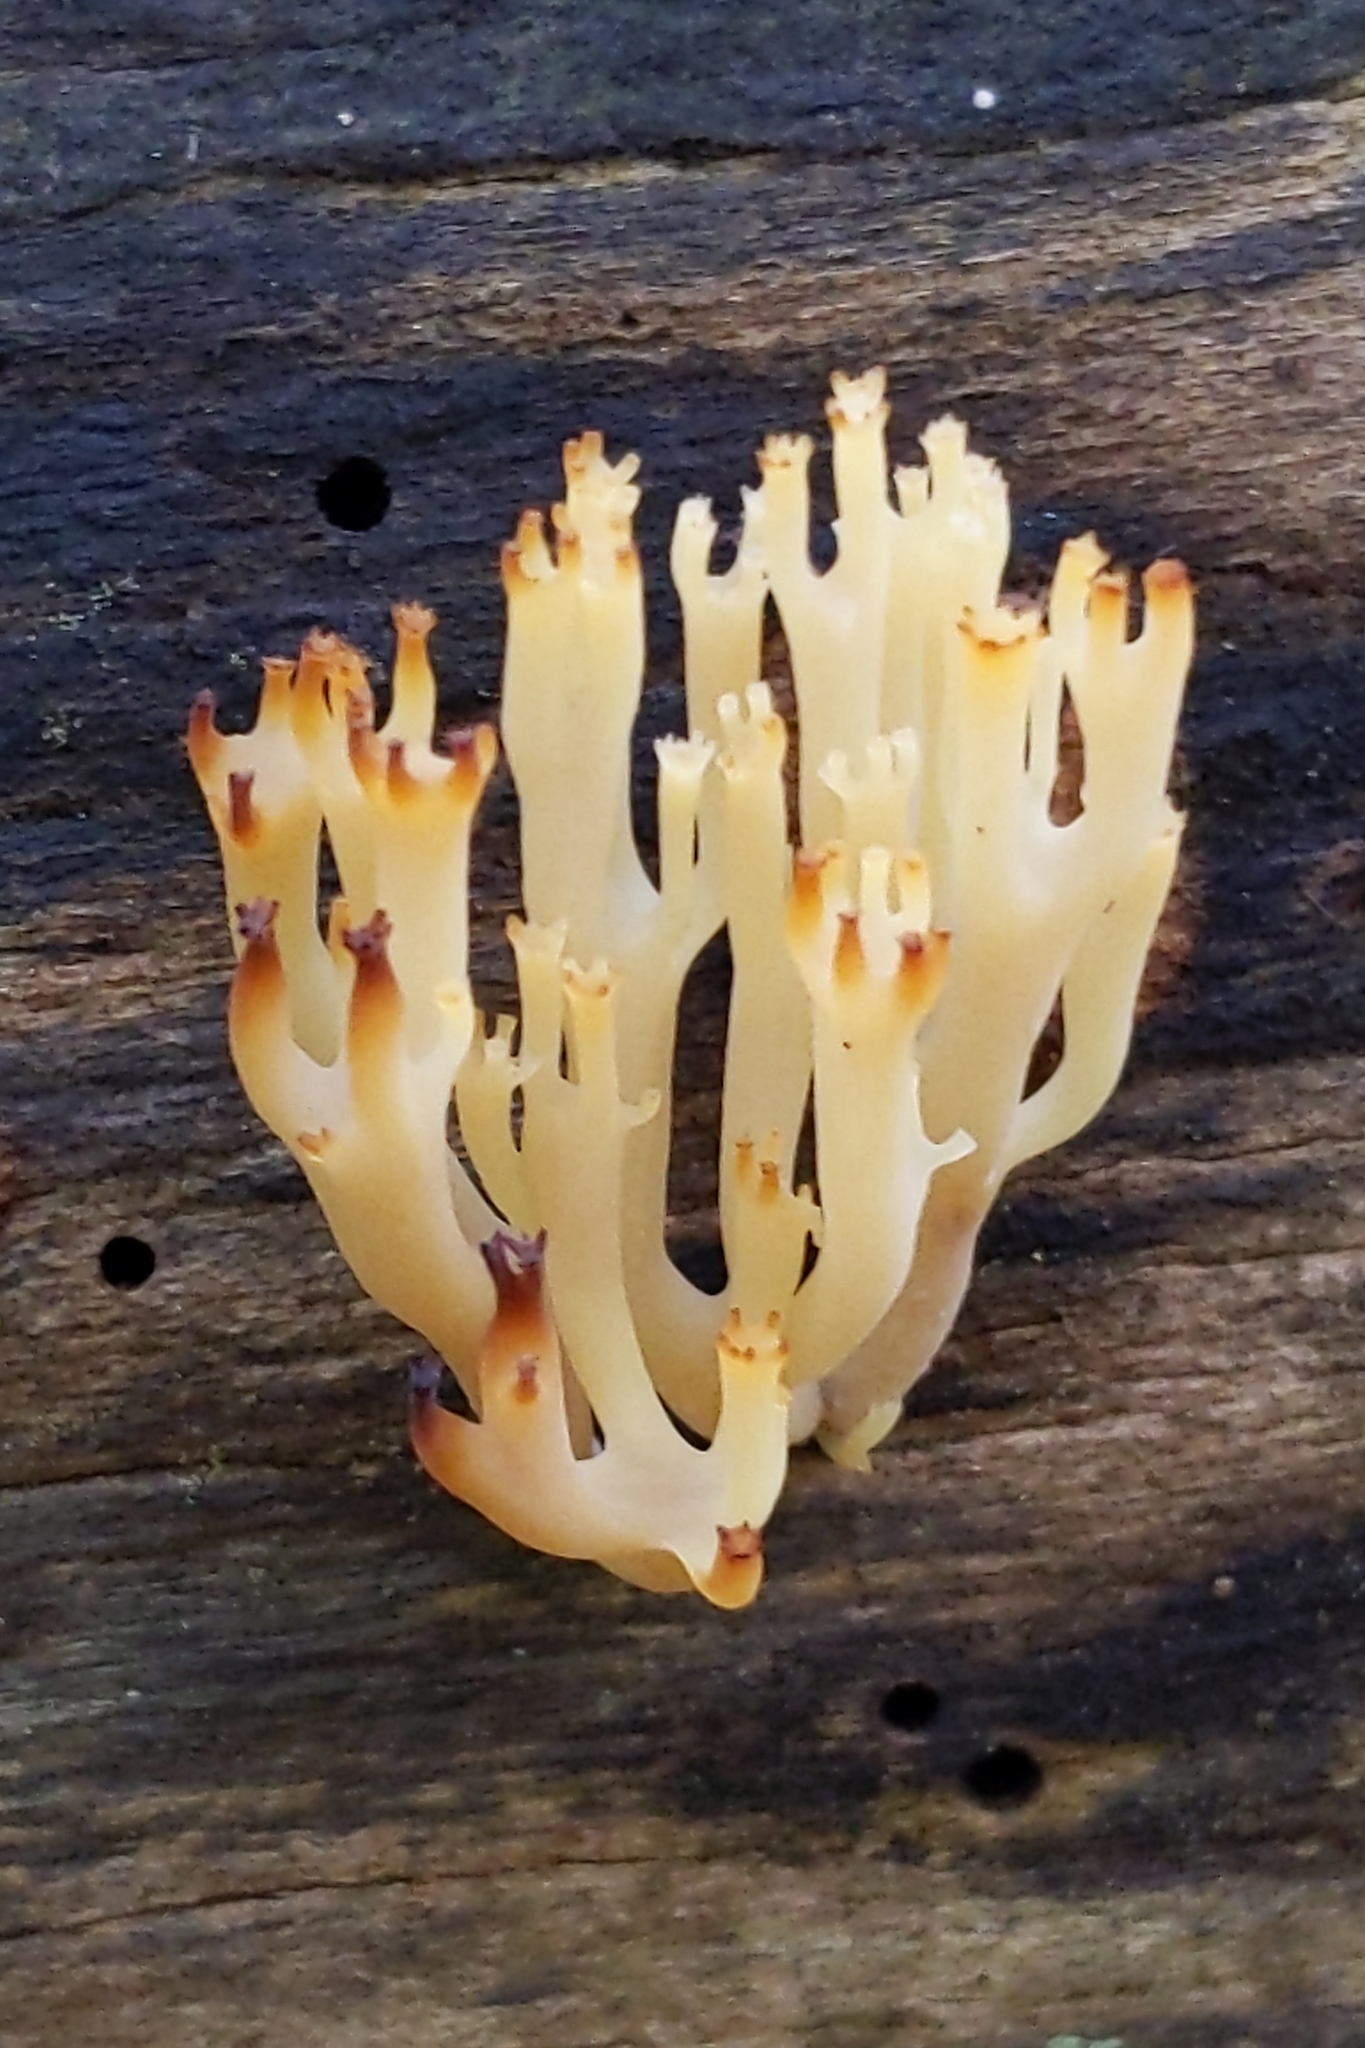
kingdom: Fungi
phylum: Basidiomycota
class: Agaricomycetes
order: Russulales
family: Auriscalpiaceae
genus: Artomyces
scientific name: Artomyces pyxidatus
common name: Crown-tipped coral fungus
